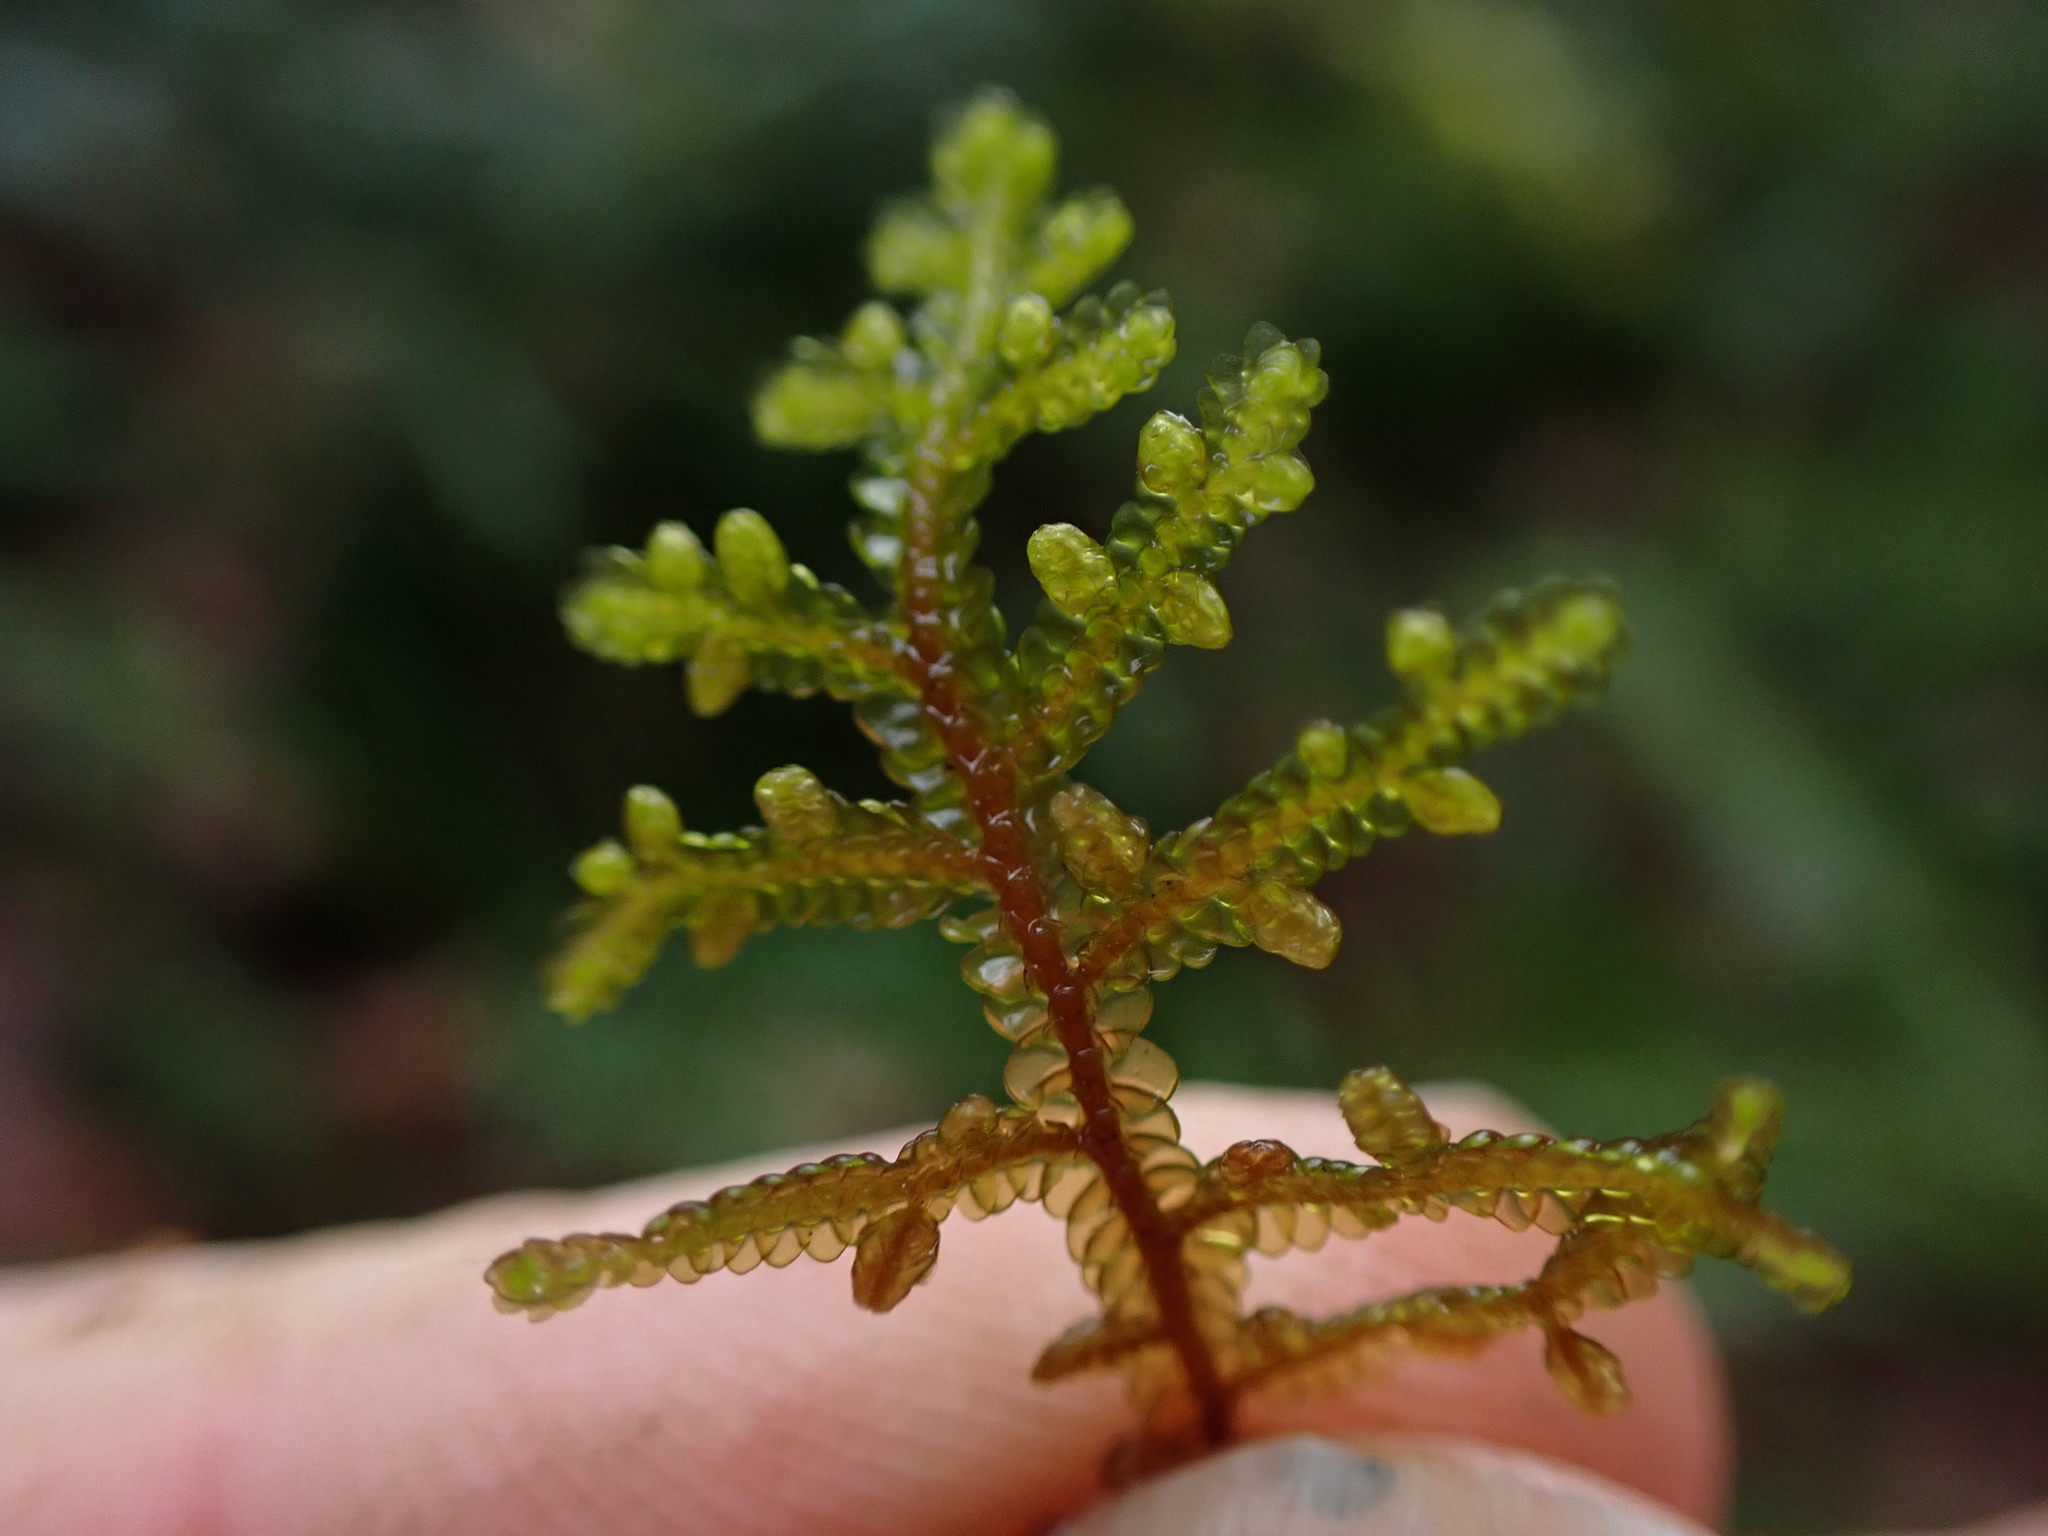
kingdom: Plantae
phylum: Marchantiophyta
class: Jungermanniopsida
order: Porellales
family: Porellaceae
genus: Porella
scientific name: Porella navicularis
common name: Tree ruffle liverwort
